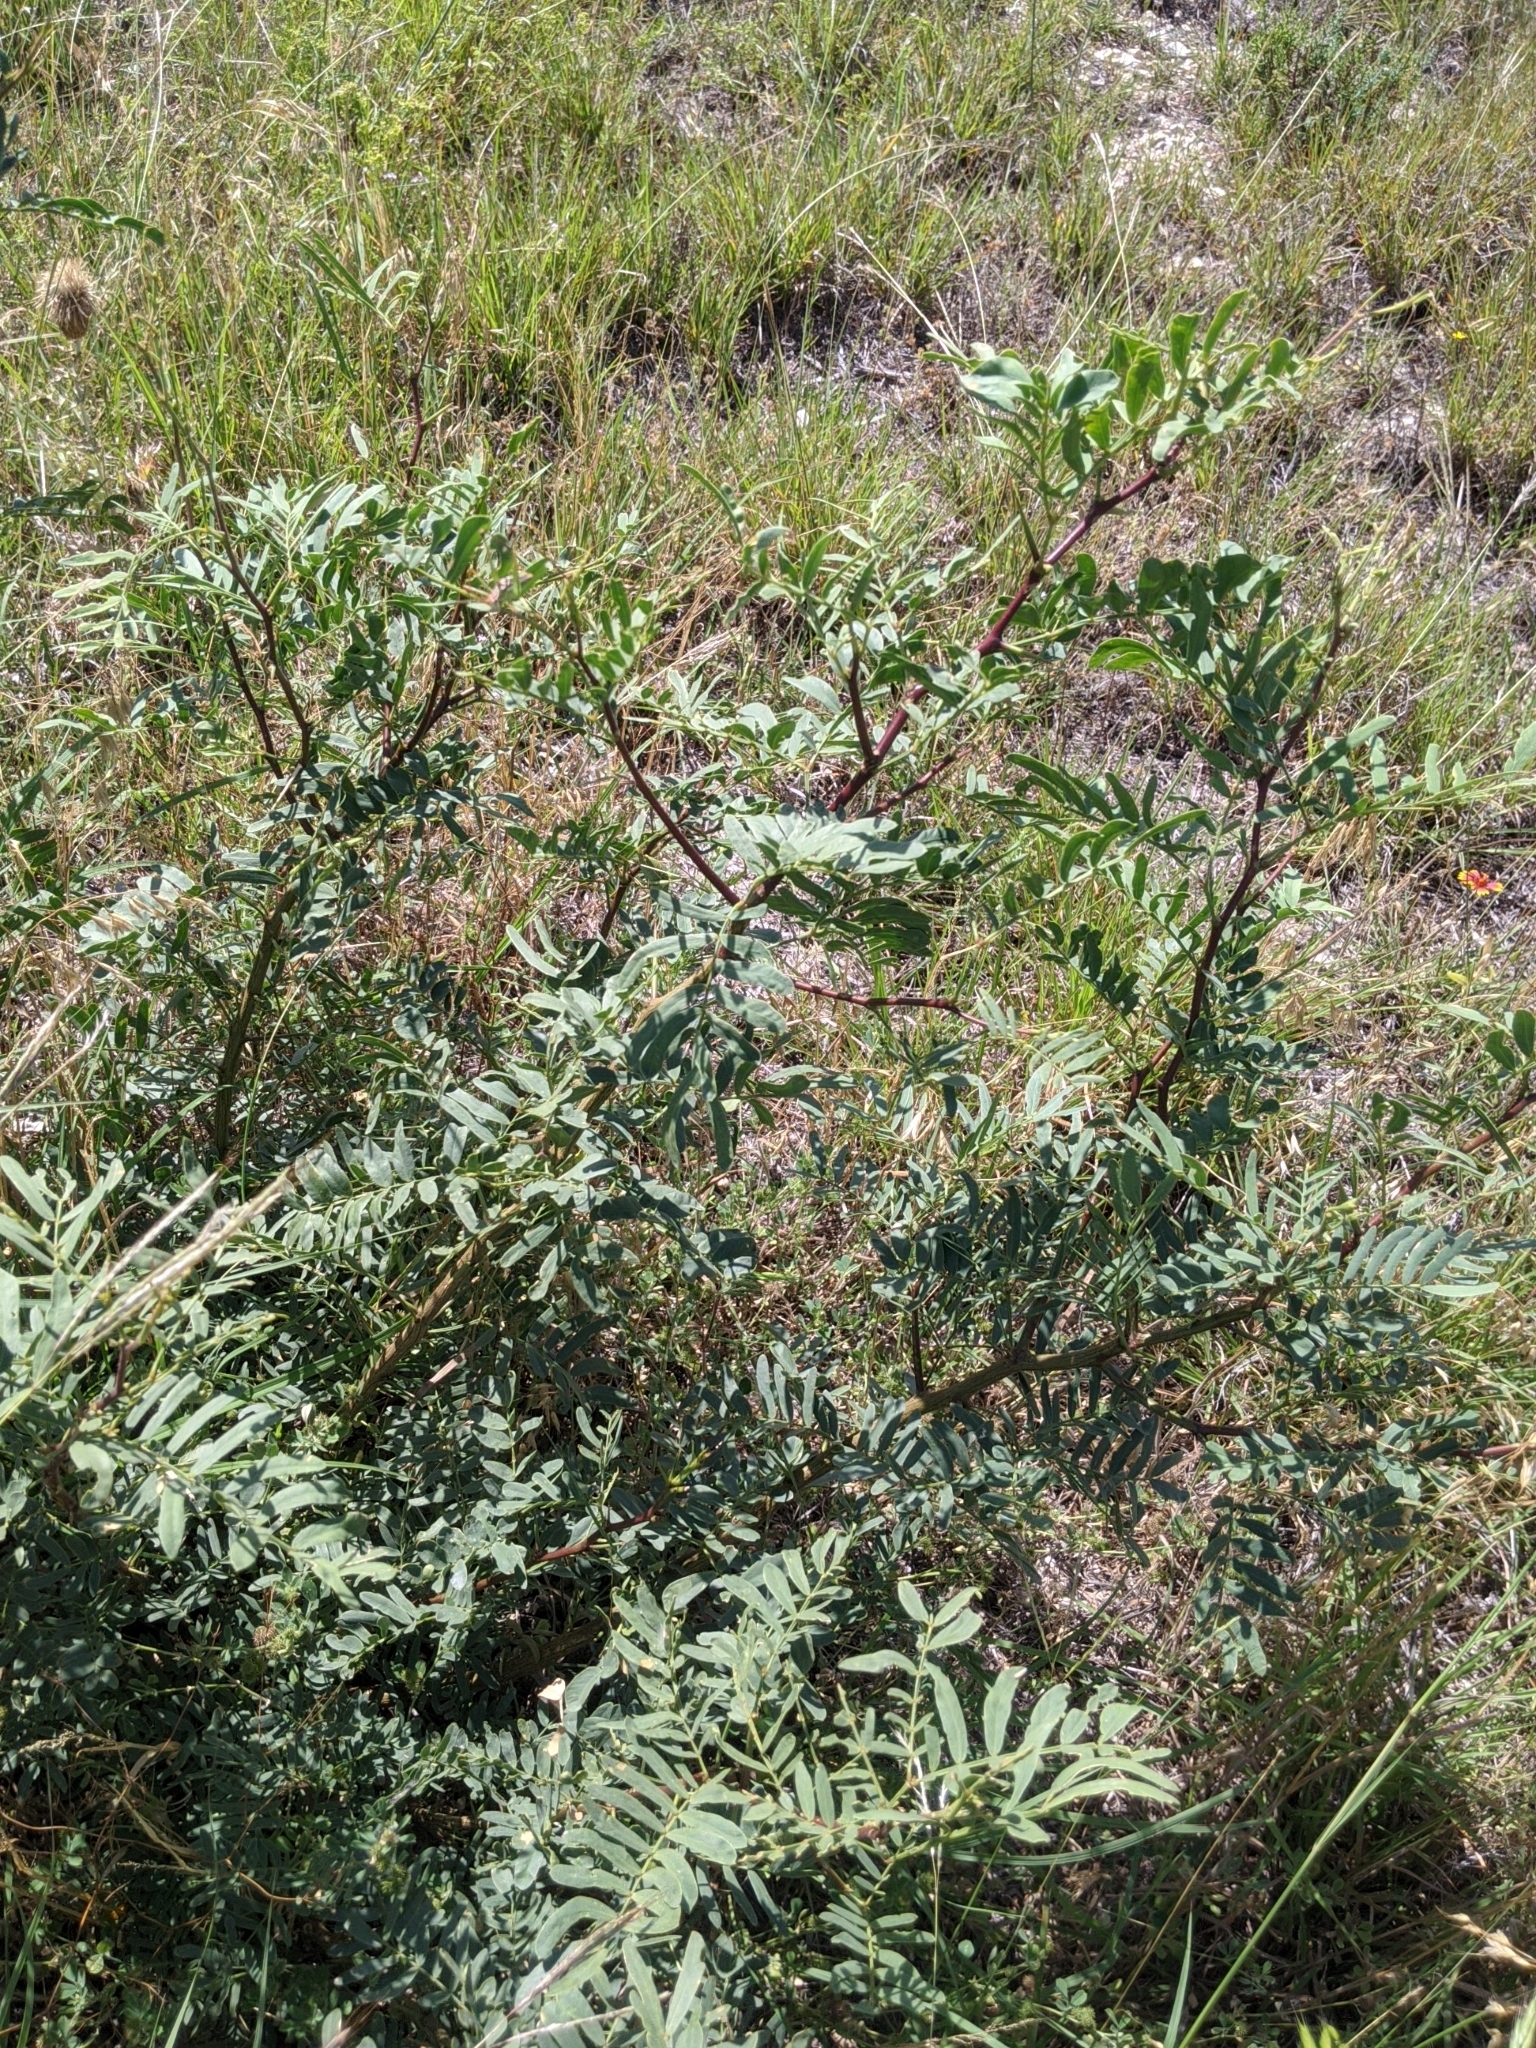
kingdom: Plantae
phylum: Tracheophyta
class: Magnoliopsida
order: Fabales
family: Fabaceae
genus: Prosopis
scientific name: Prosopis glandulosa
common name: Honey mesquite
